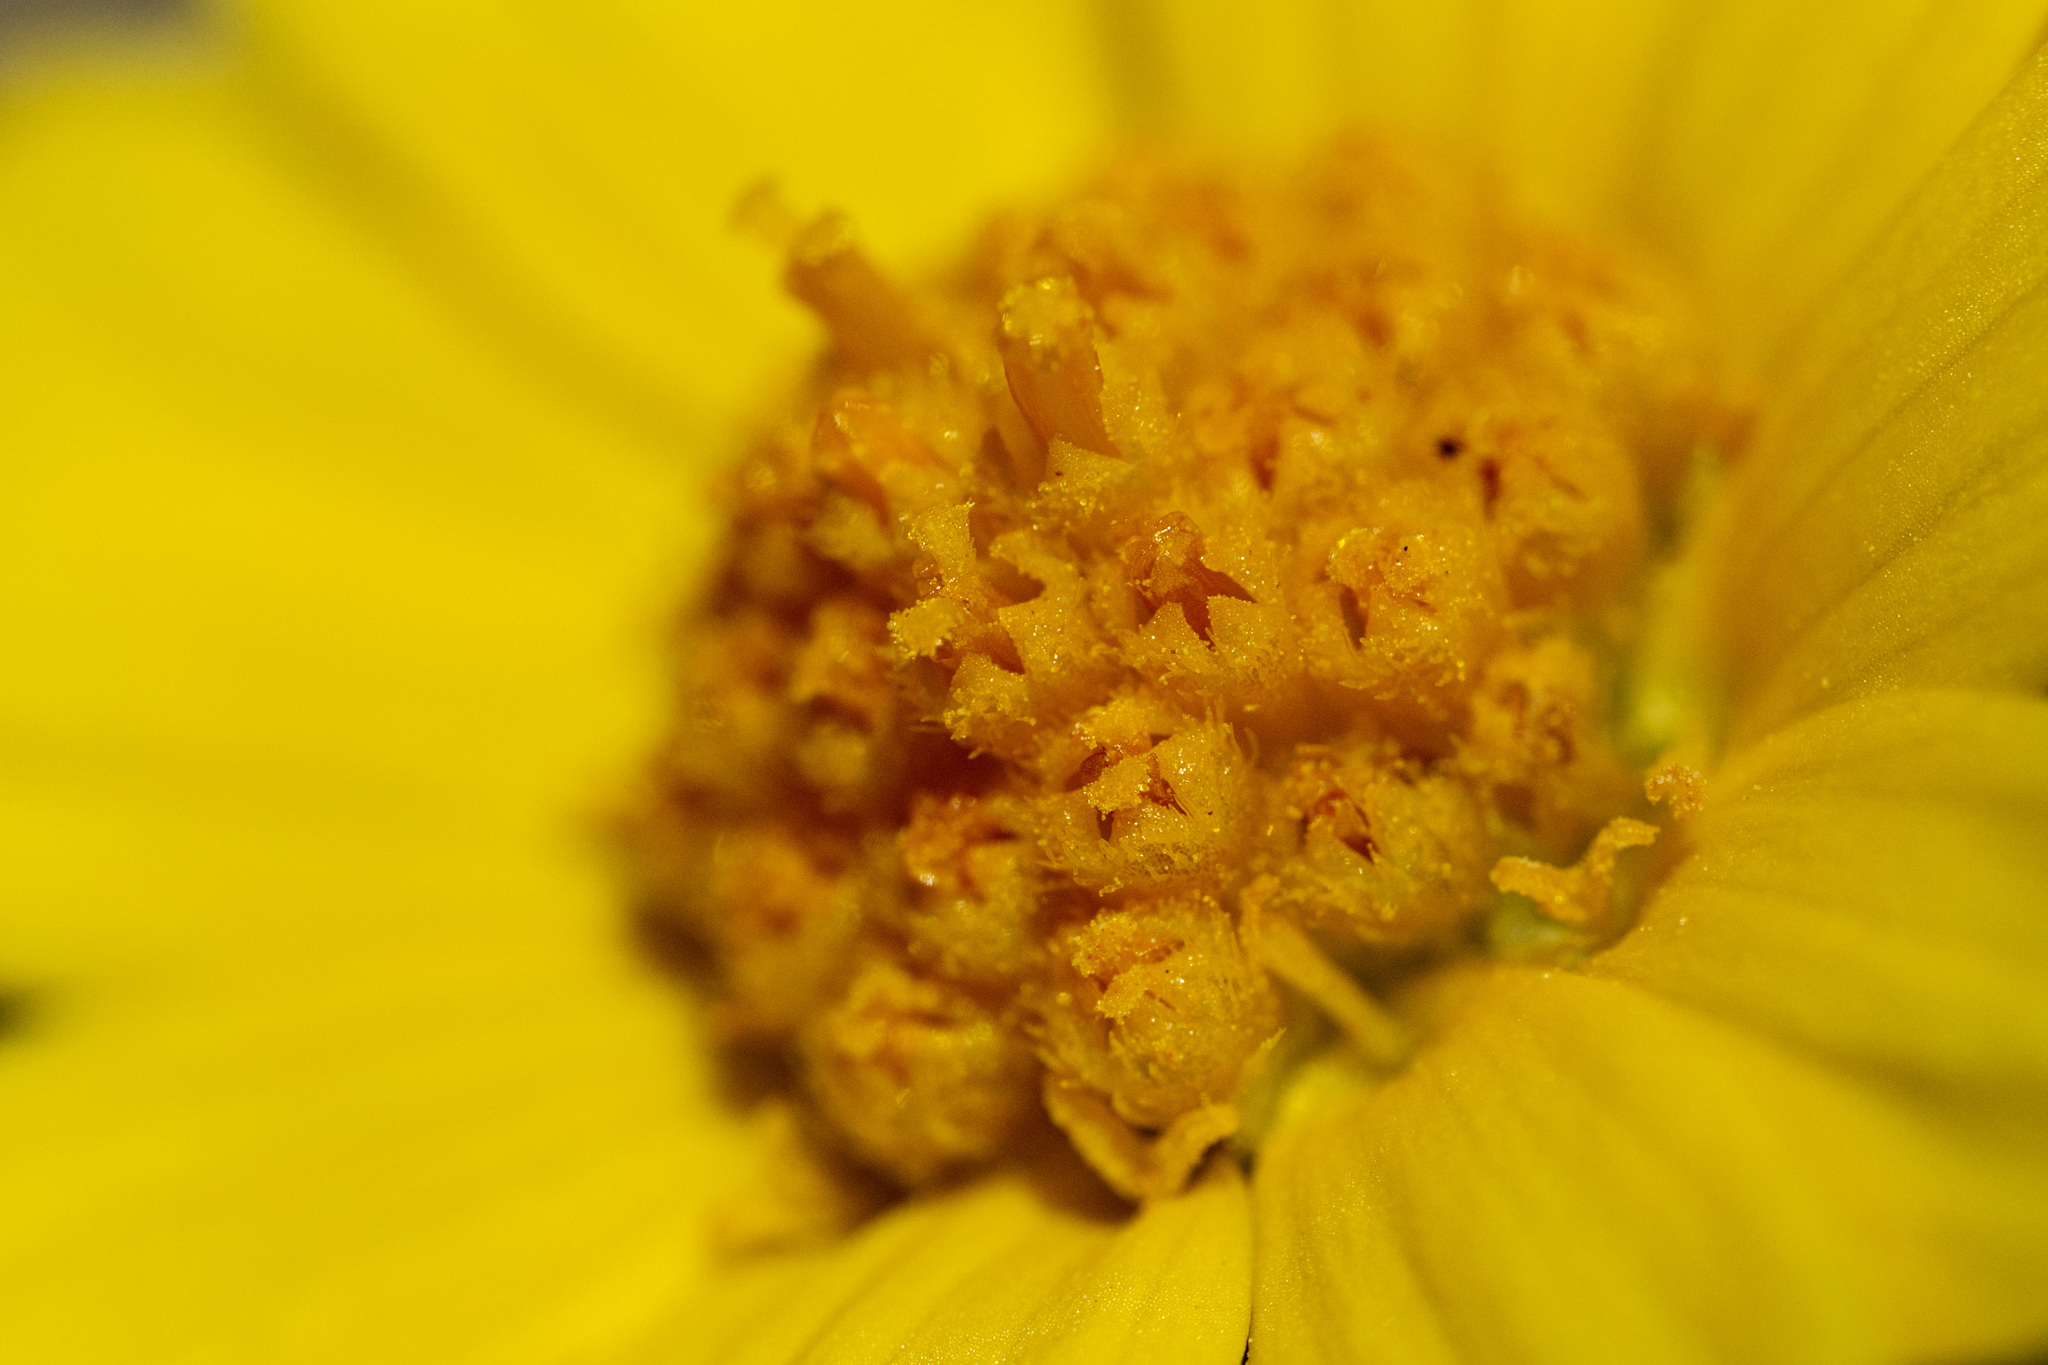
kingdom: Plantae
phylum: Tracheophyta
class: Magnoliopsida
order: Asterales
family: Asteraceae
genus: Tetraneuris
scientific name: Tetraneuris torreyana
